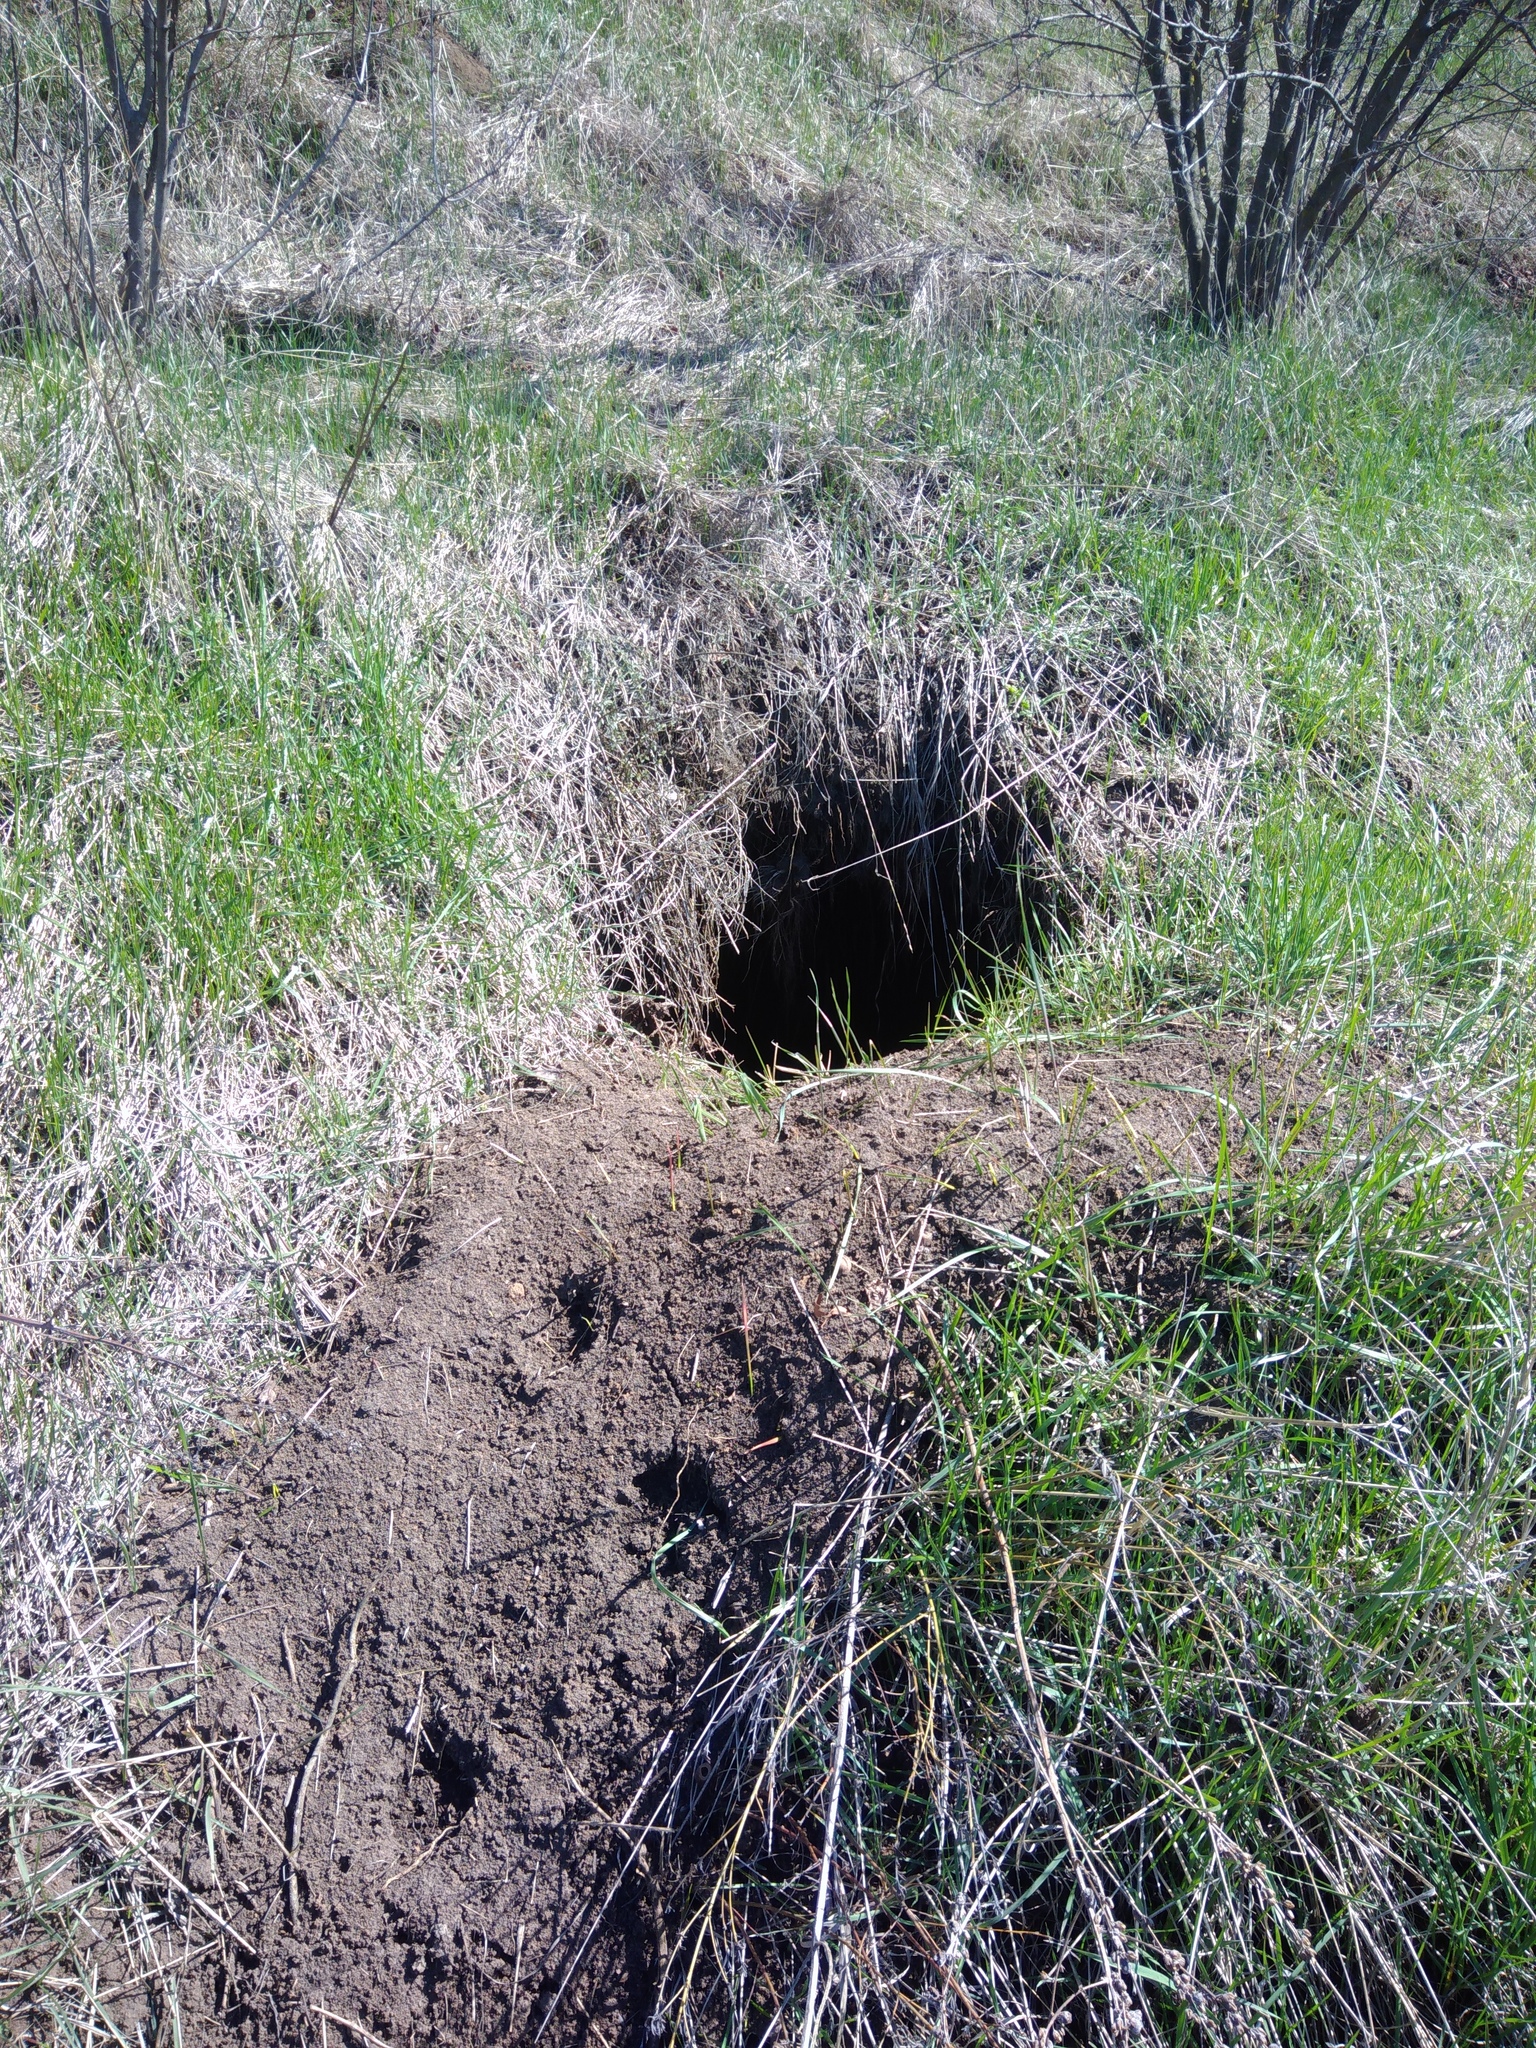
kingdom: Animalia
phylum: Chordata
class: Mammalia
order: Carnivora
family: Canidae
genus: Vulpes
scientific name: Vulpes vulpes
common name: Red fox
